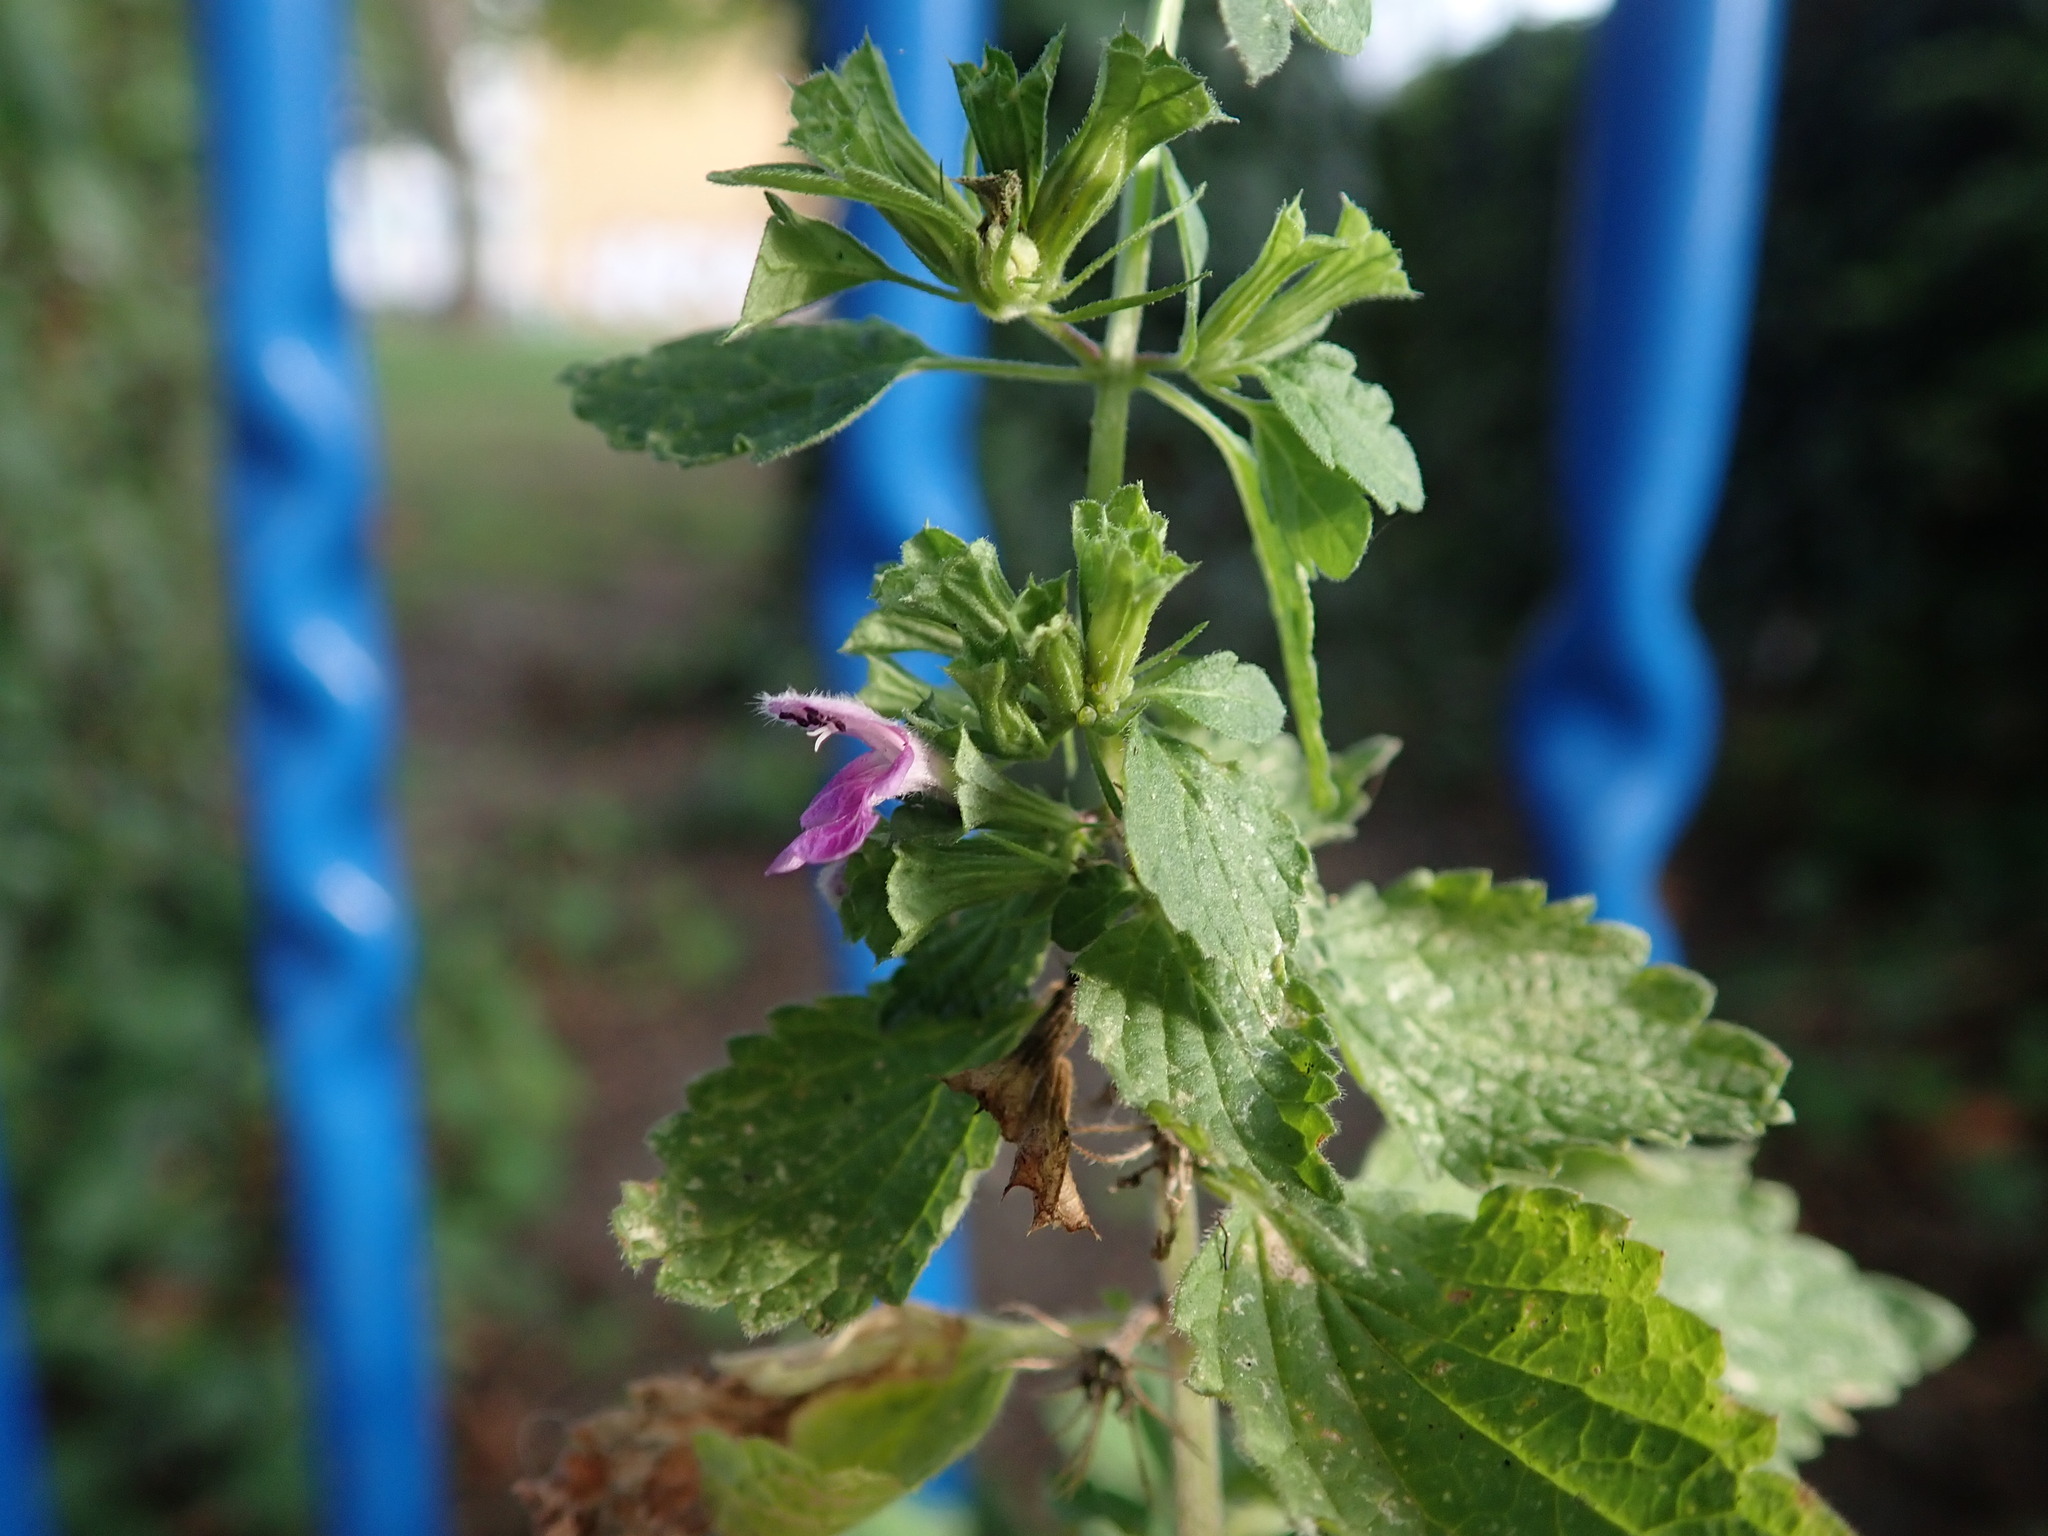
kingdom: Plantae
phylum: Tracheophyta
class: Magnoliopsida
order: Lamiales
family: Lamiaceae
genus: Ballota
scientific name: Ballota nigra
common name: Black horehound
